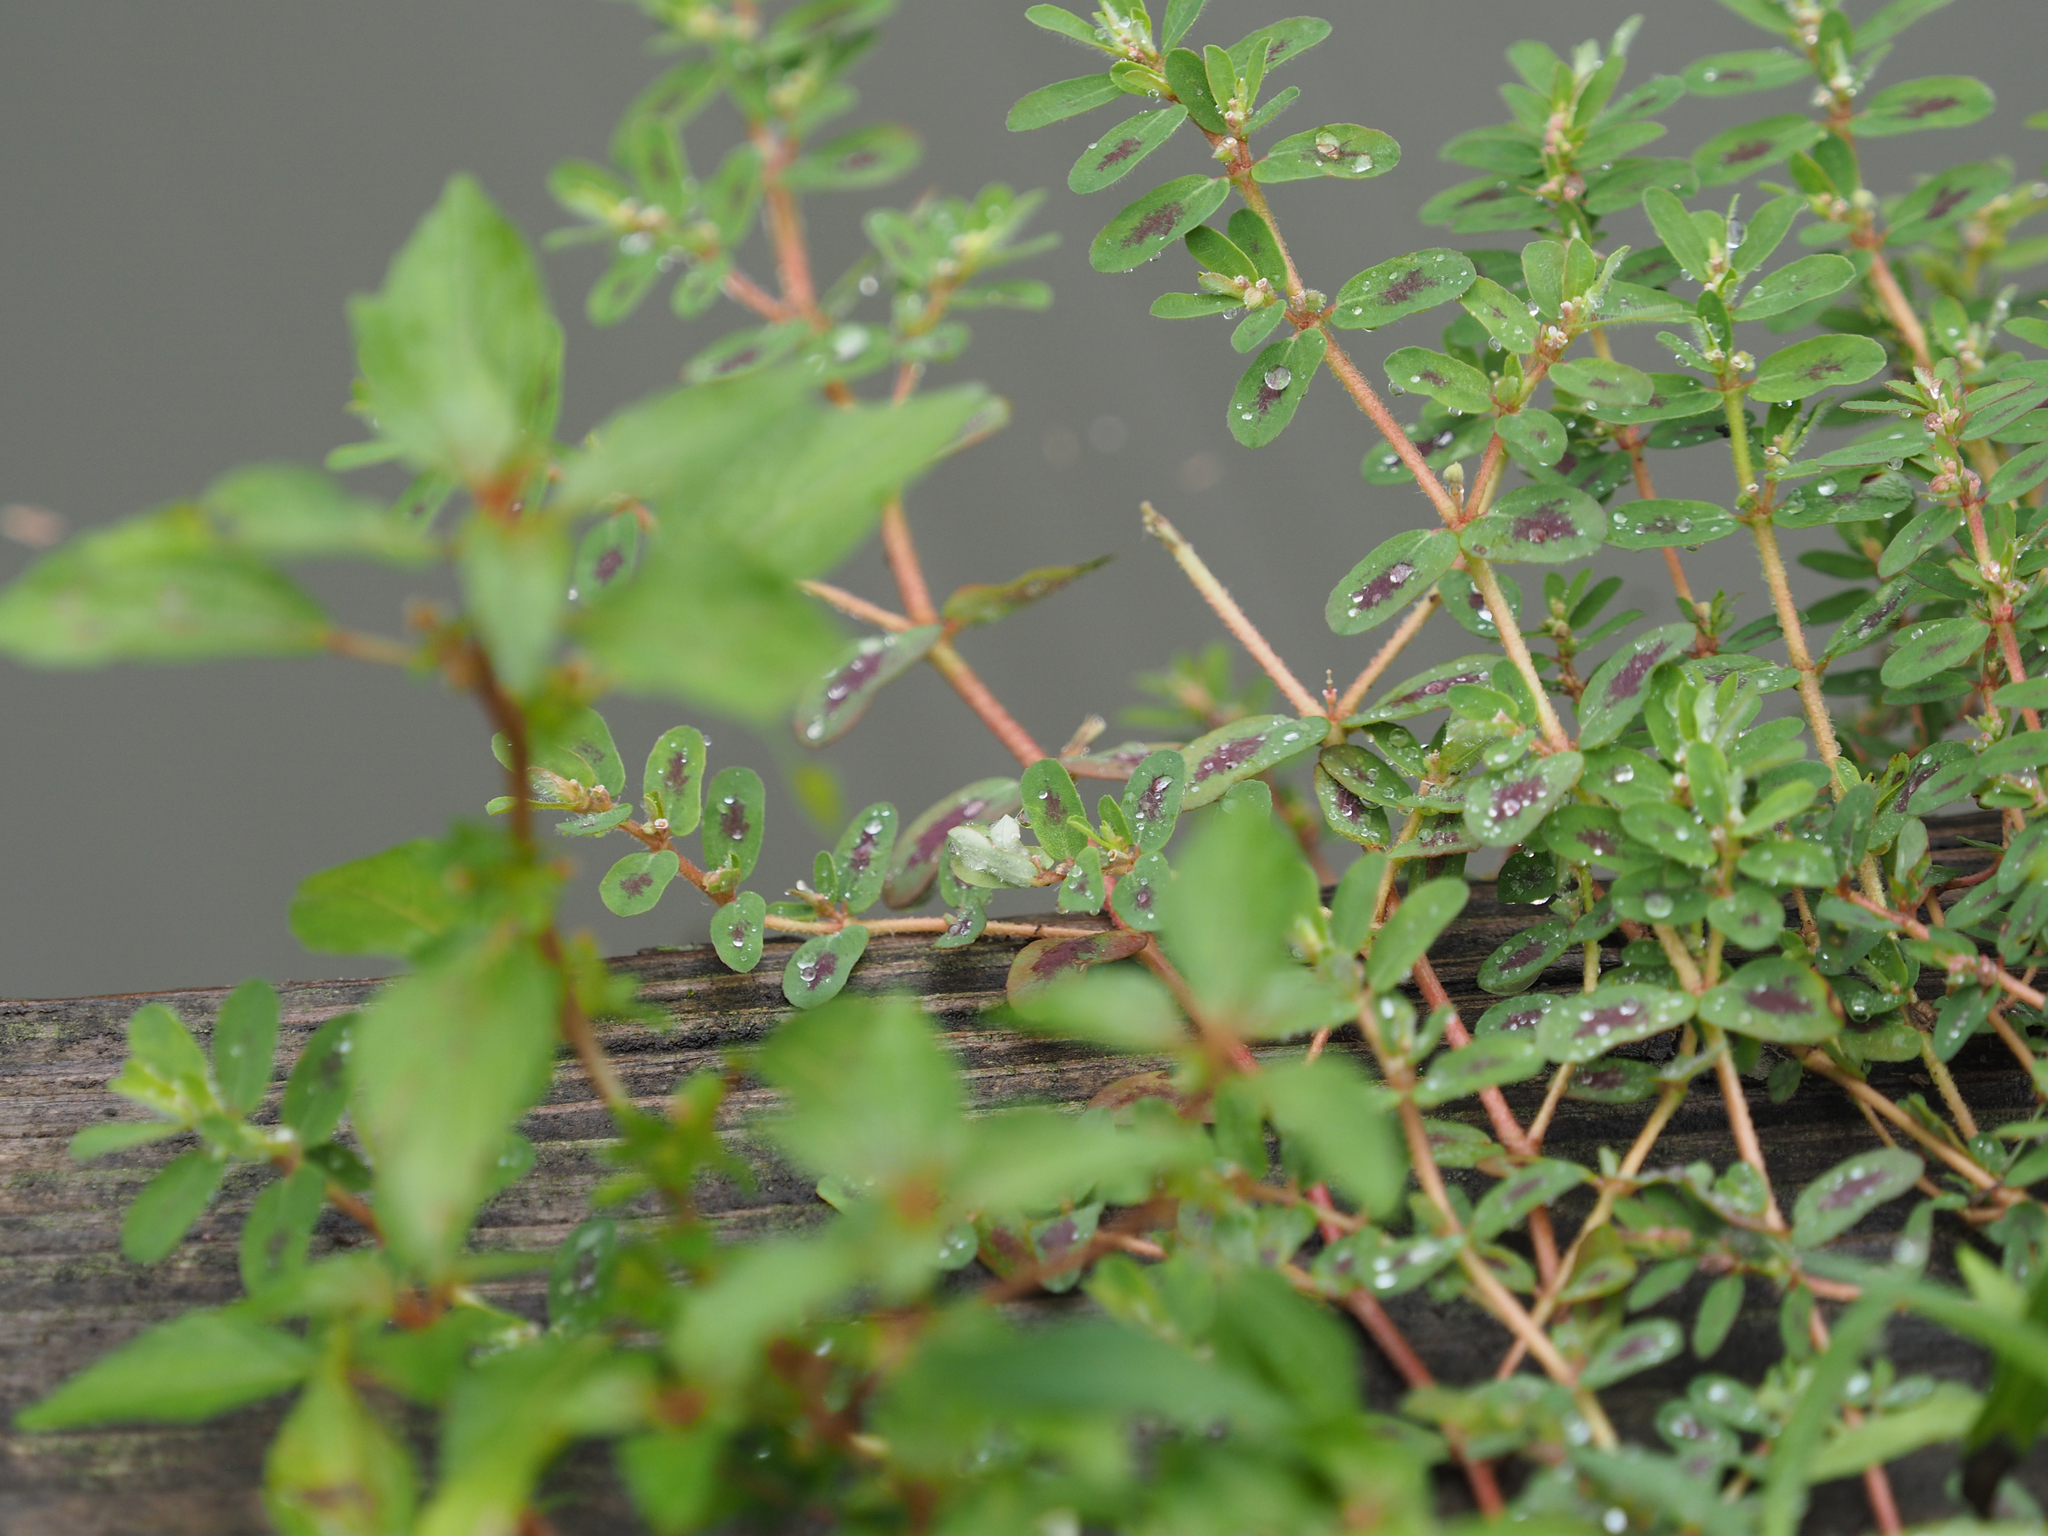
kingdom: Plantae
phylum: Tracheophyta
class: Magnoliopsida
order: Malpighiales
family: Euphorbiaceae
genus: Euphorbia
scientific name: Euphorbia maculata
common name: Spotted spurge
